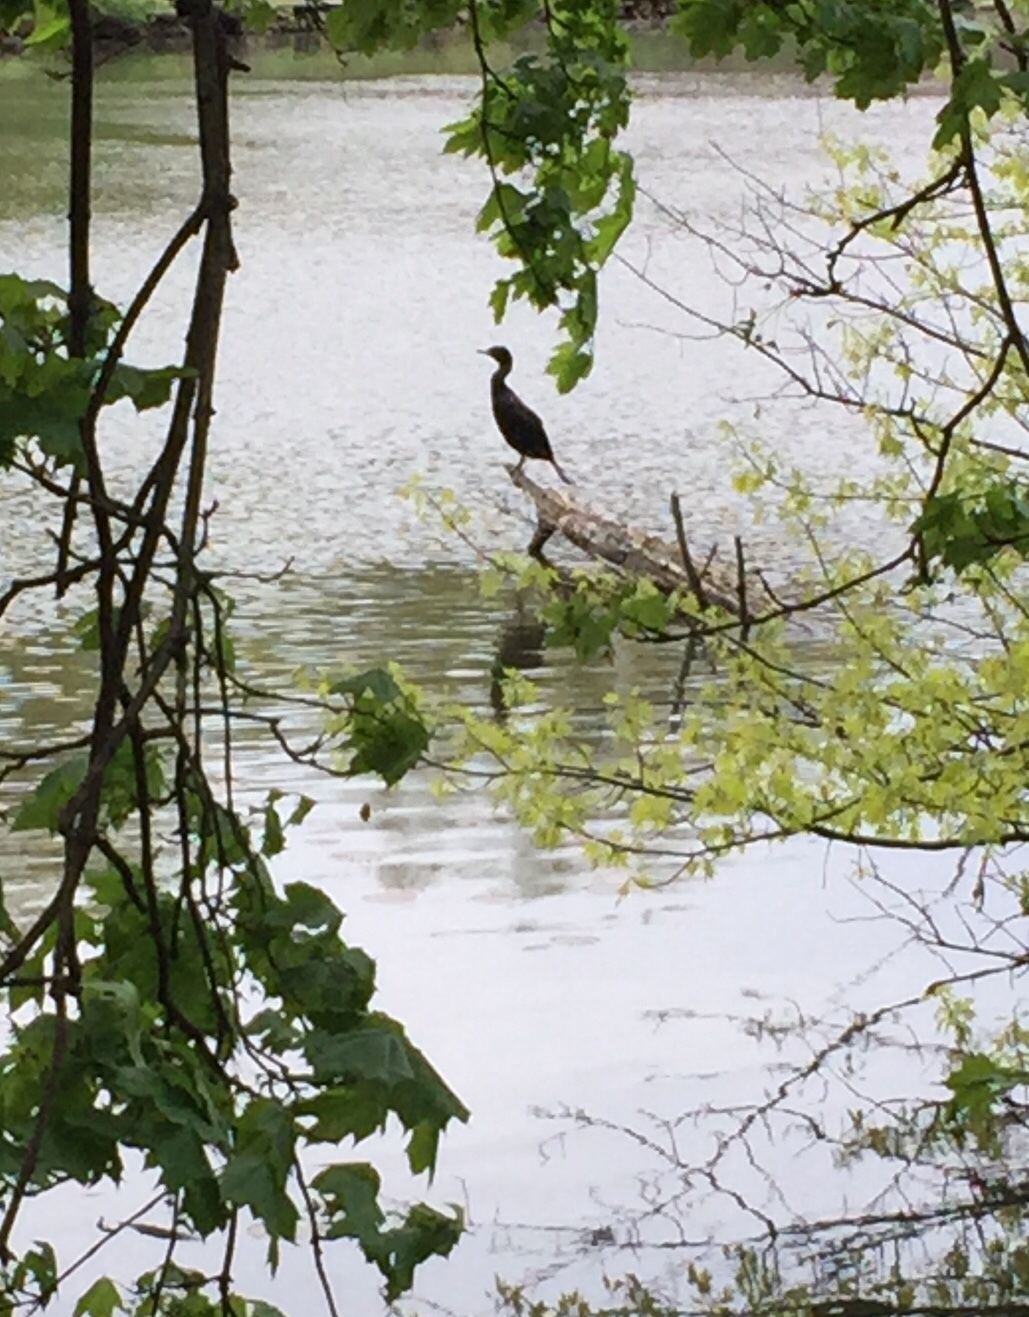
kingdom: Animalia
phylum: Chordata
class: Aves
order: Suliformes
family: Phalacrocoracidae
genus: Phalacrocorax
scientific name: Phalacrocorax auritus
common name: Double-crested cormorant
